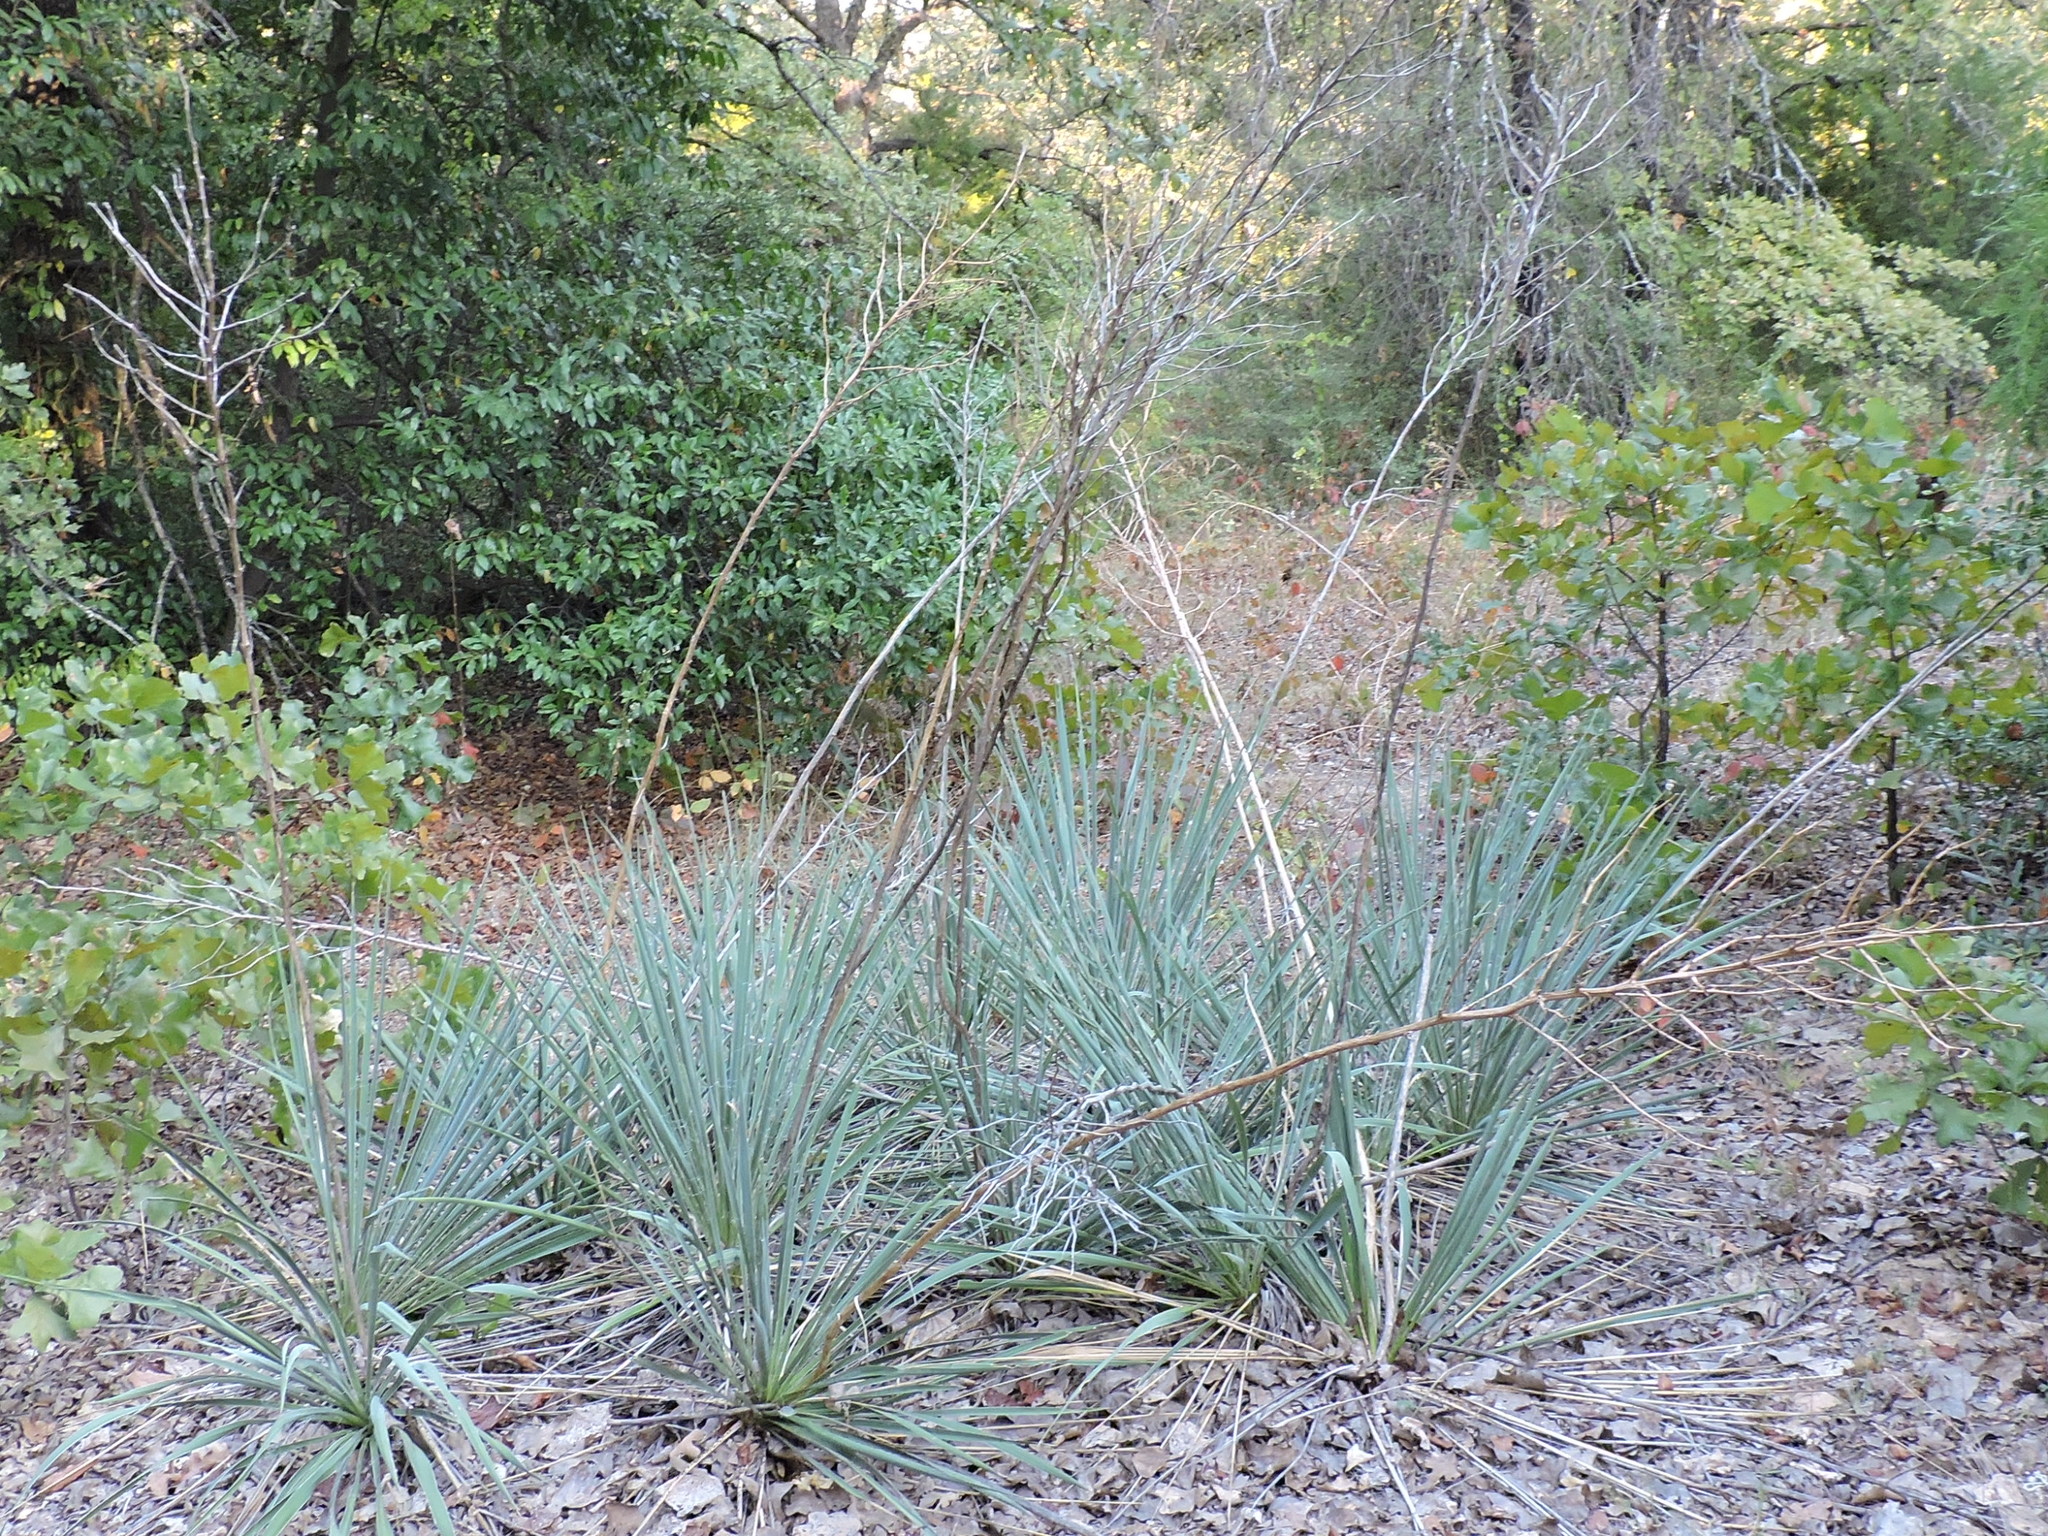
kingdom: Plantae
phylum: Tracheophyta
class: Liliopsida
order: Asparagales
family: Asparagaceae
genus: Yucca
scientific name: Yucca necopina
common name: Glen rose yucca
